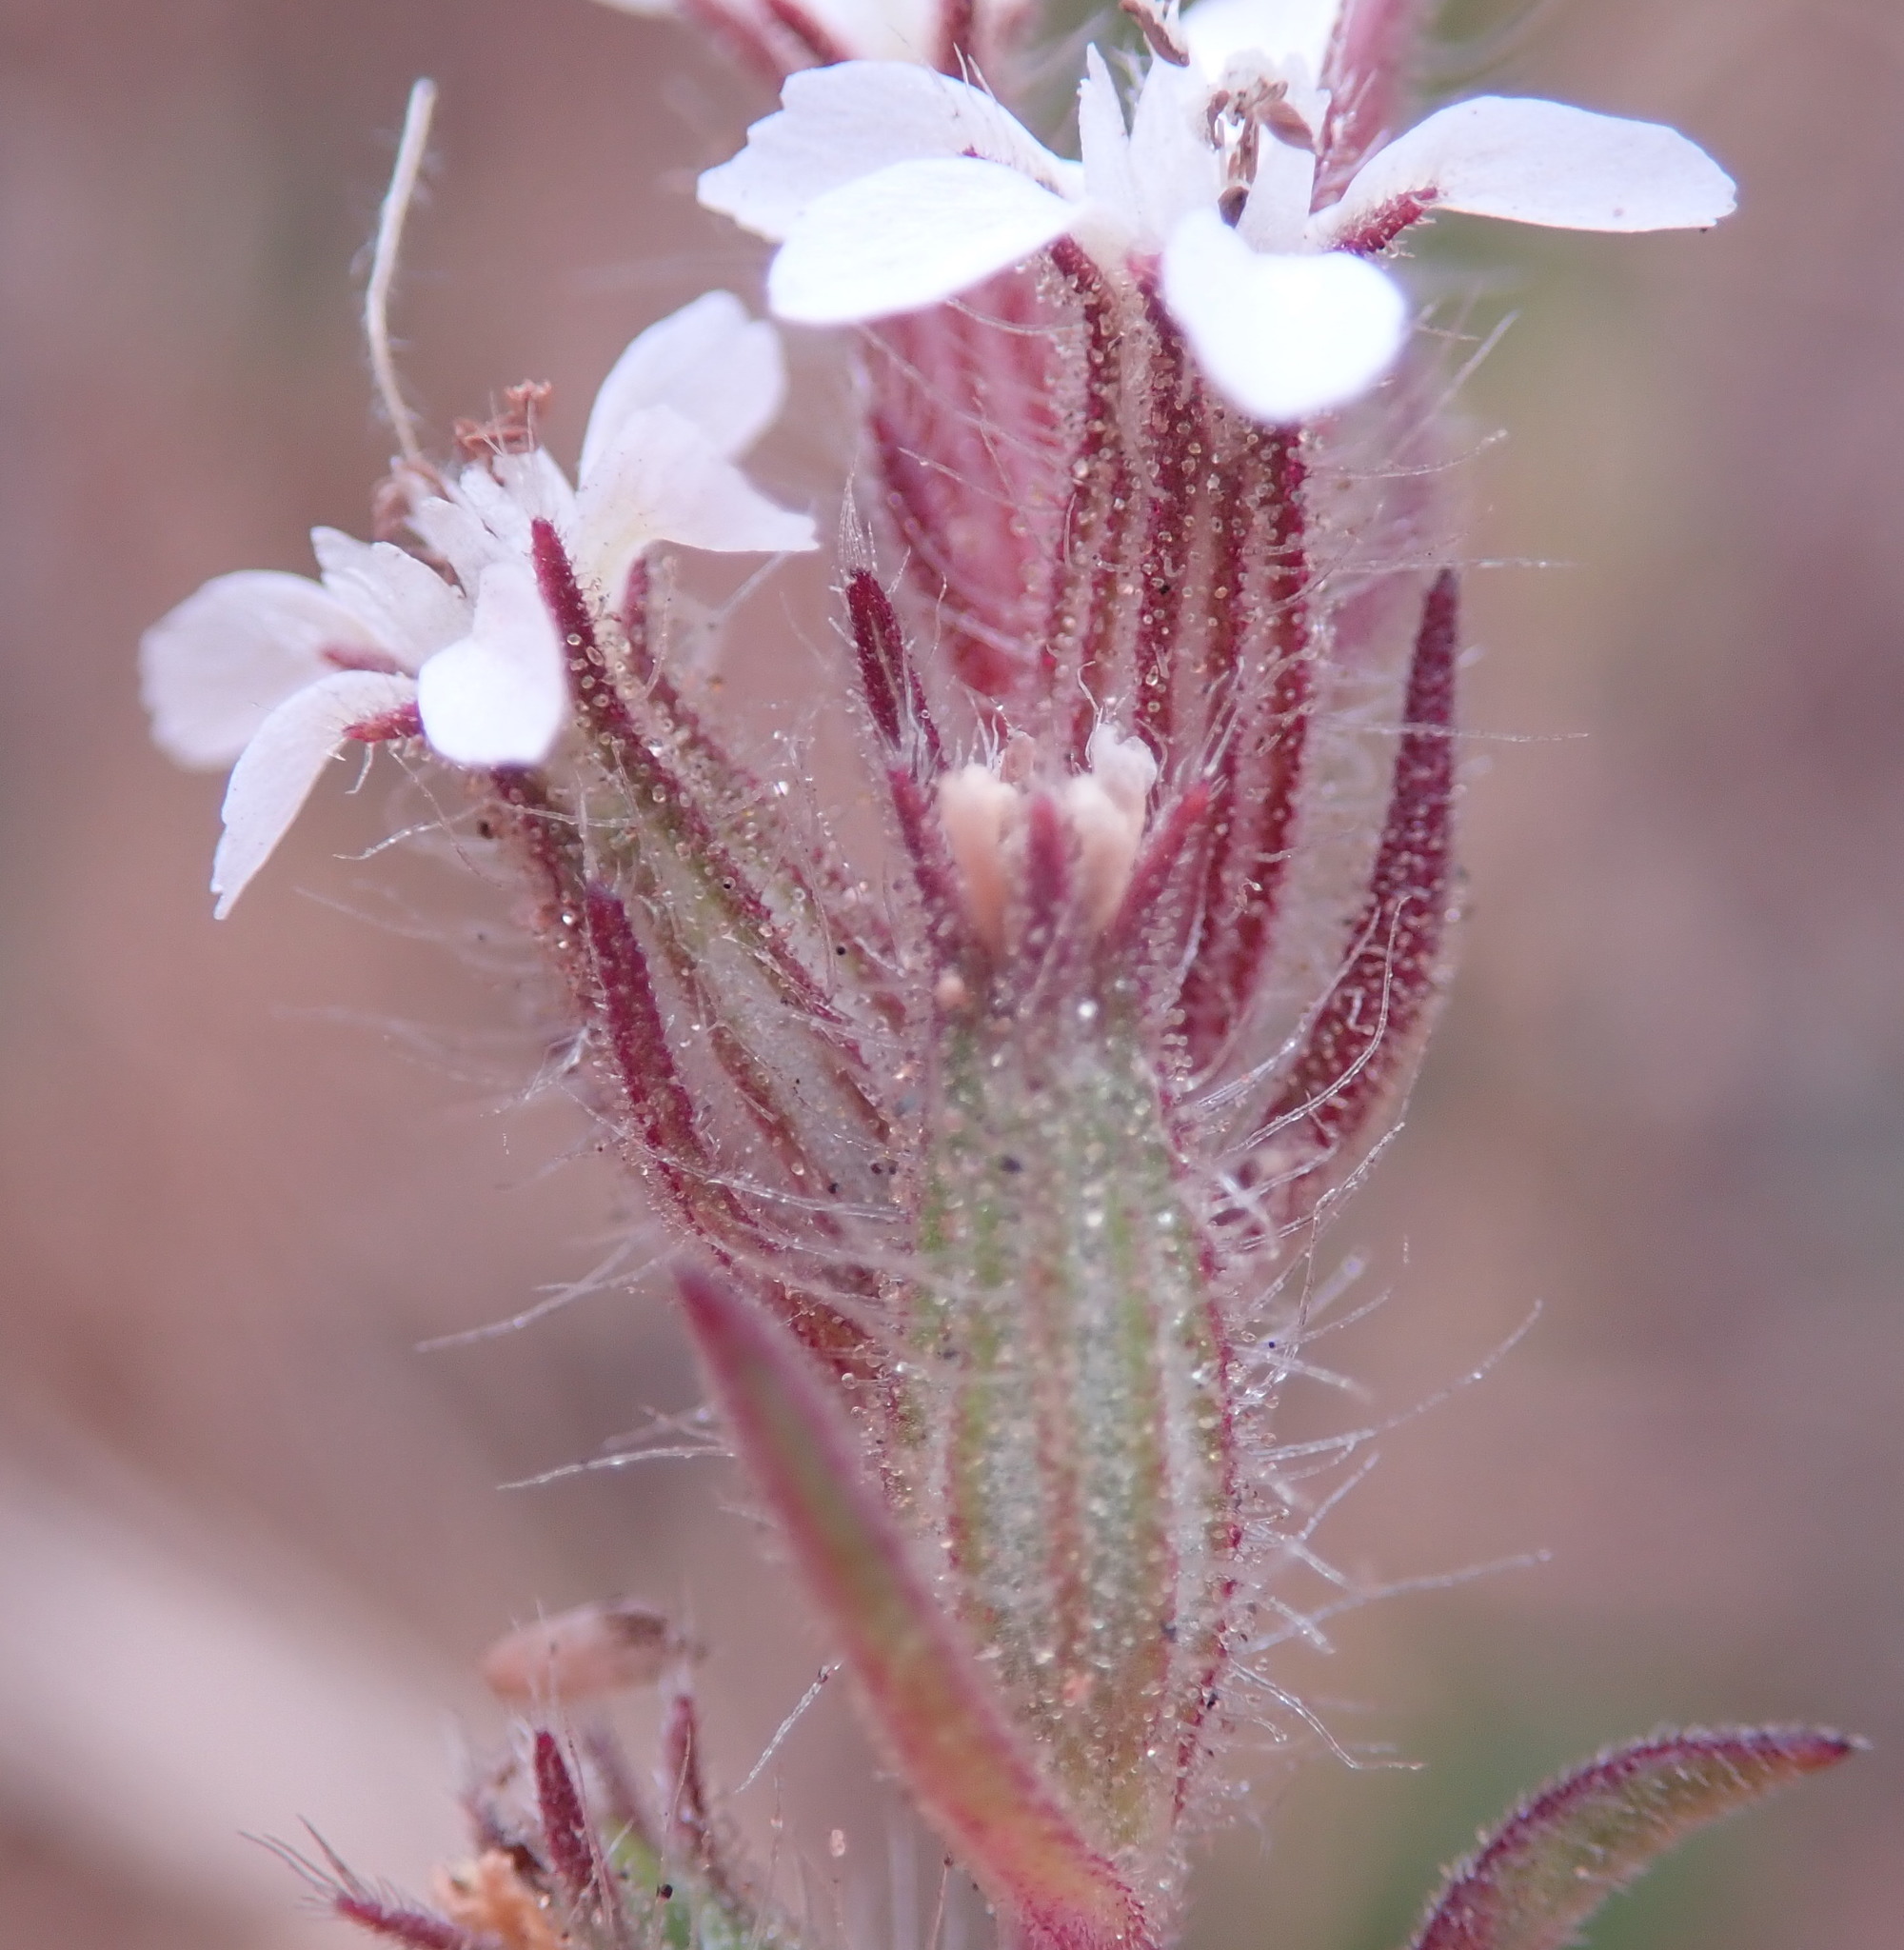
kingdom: Plantae
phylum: Tracheophyta
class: Magnoliopsida
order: Caryophyllales
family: Caryophyllaceae
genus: Silene
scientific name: Silene gallica
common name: Small-flowered catchfly
